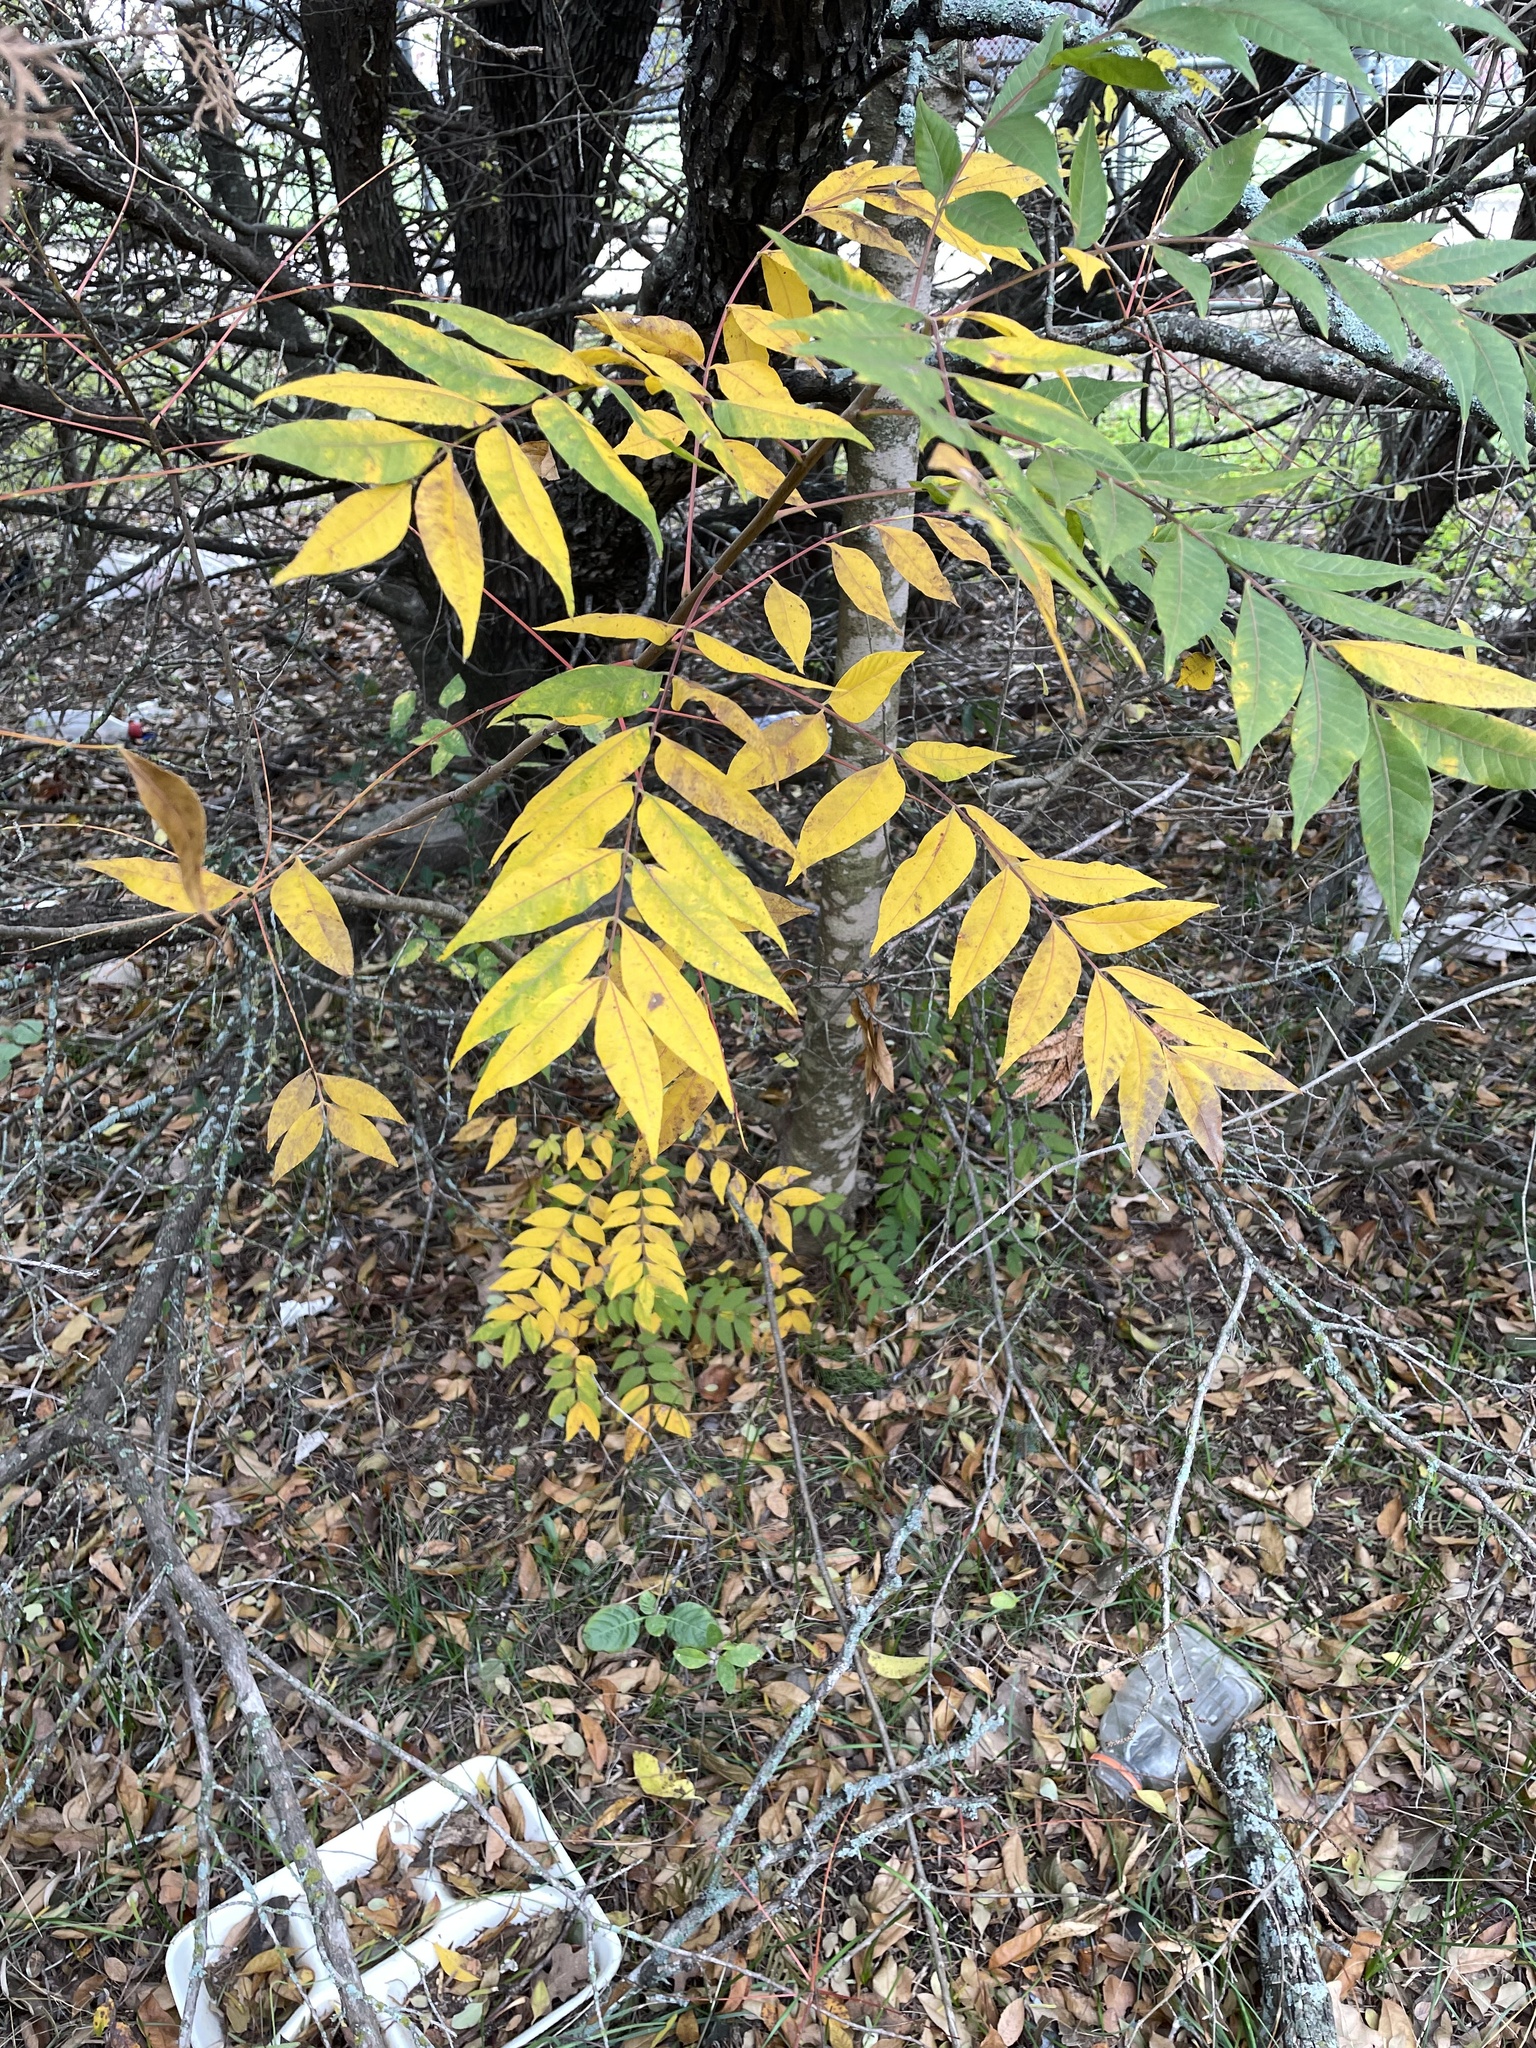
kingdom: Plantae
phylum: Tracheophyta
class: Magnoliopsida
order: Sapindales
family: Anacardiaceae
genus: Pistacia
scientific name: Pistacia chinensis
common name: Chinese pistache
